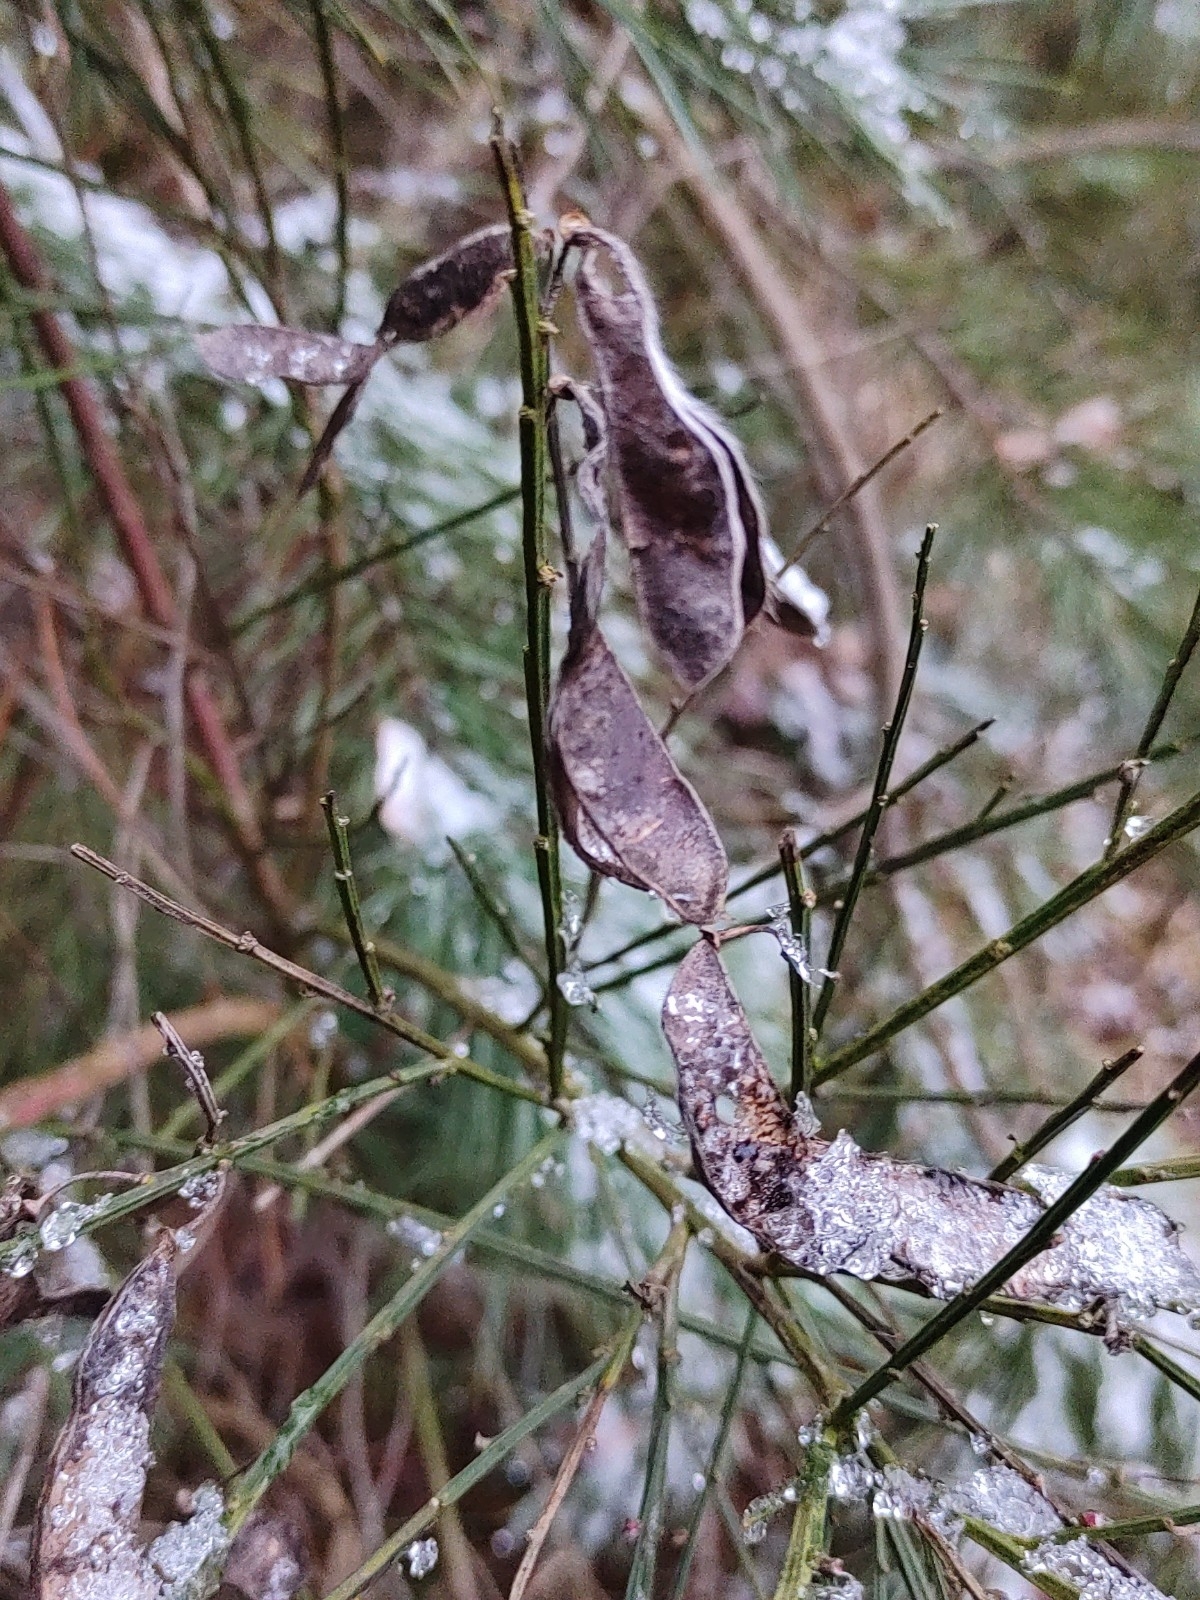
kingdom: Plantae
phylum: Tracheophyta
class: Magnoliopsida
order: Fabales
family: Fabaceae
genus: Cytisus
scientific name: Cytisus scoparius
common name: Scotch broom
